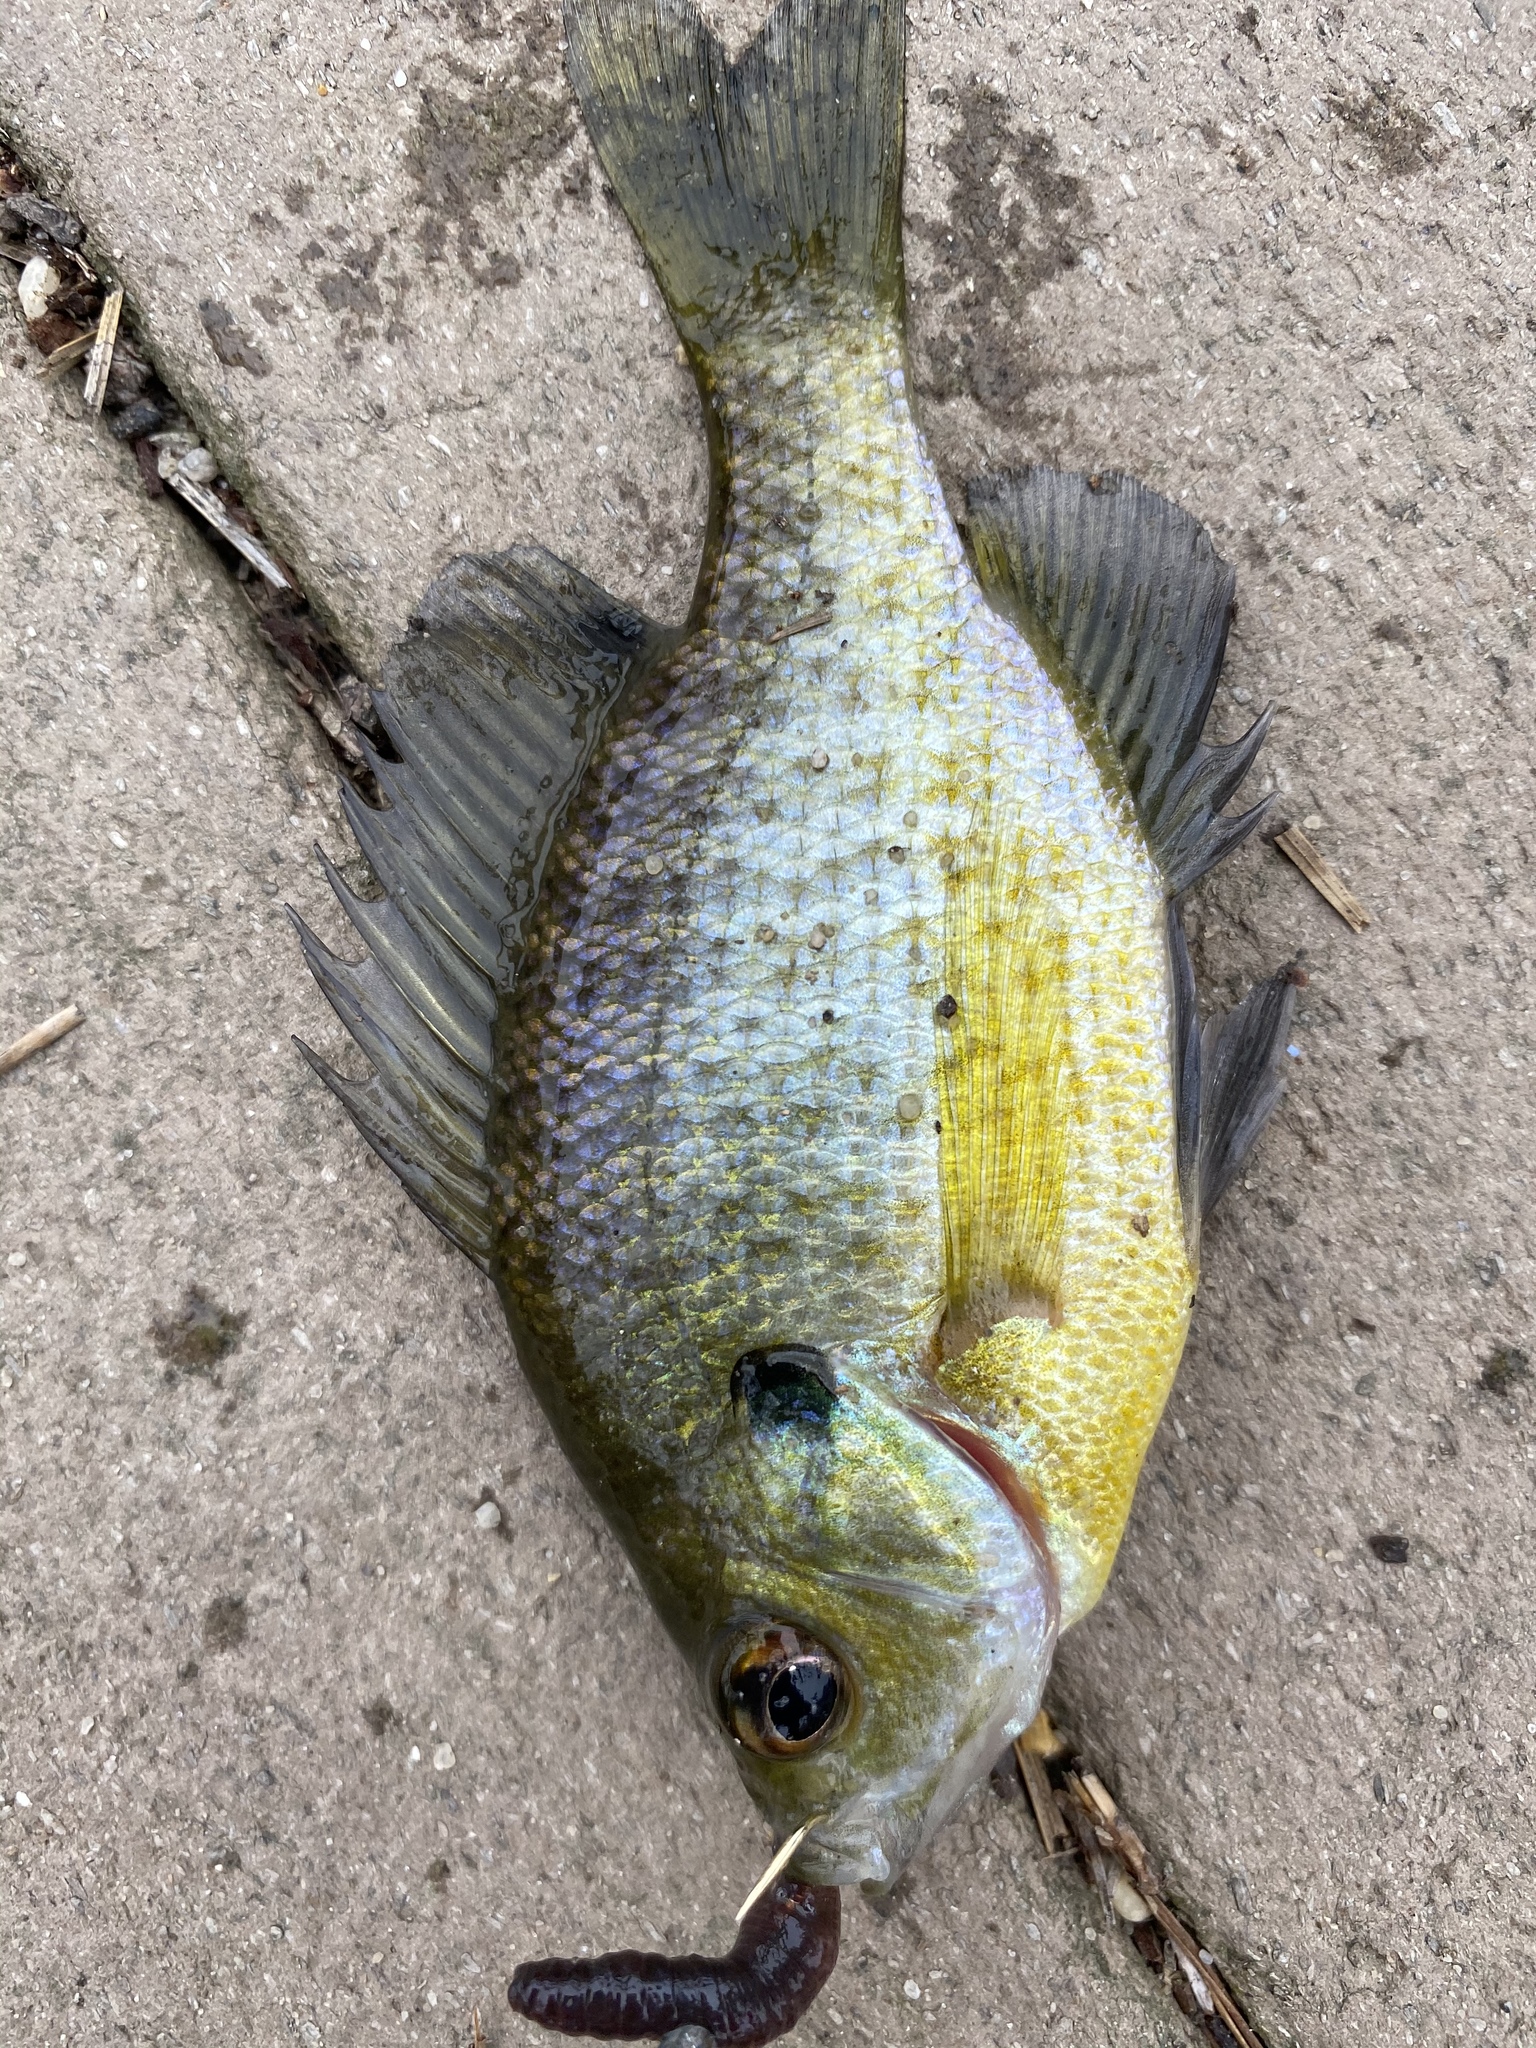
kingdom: Animalia
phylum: Chordata
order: Perciformes
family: Centrarchidae
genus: Lepomis
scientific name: Lepomis macrochirus
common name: Bluegill
